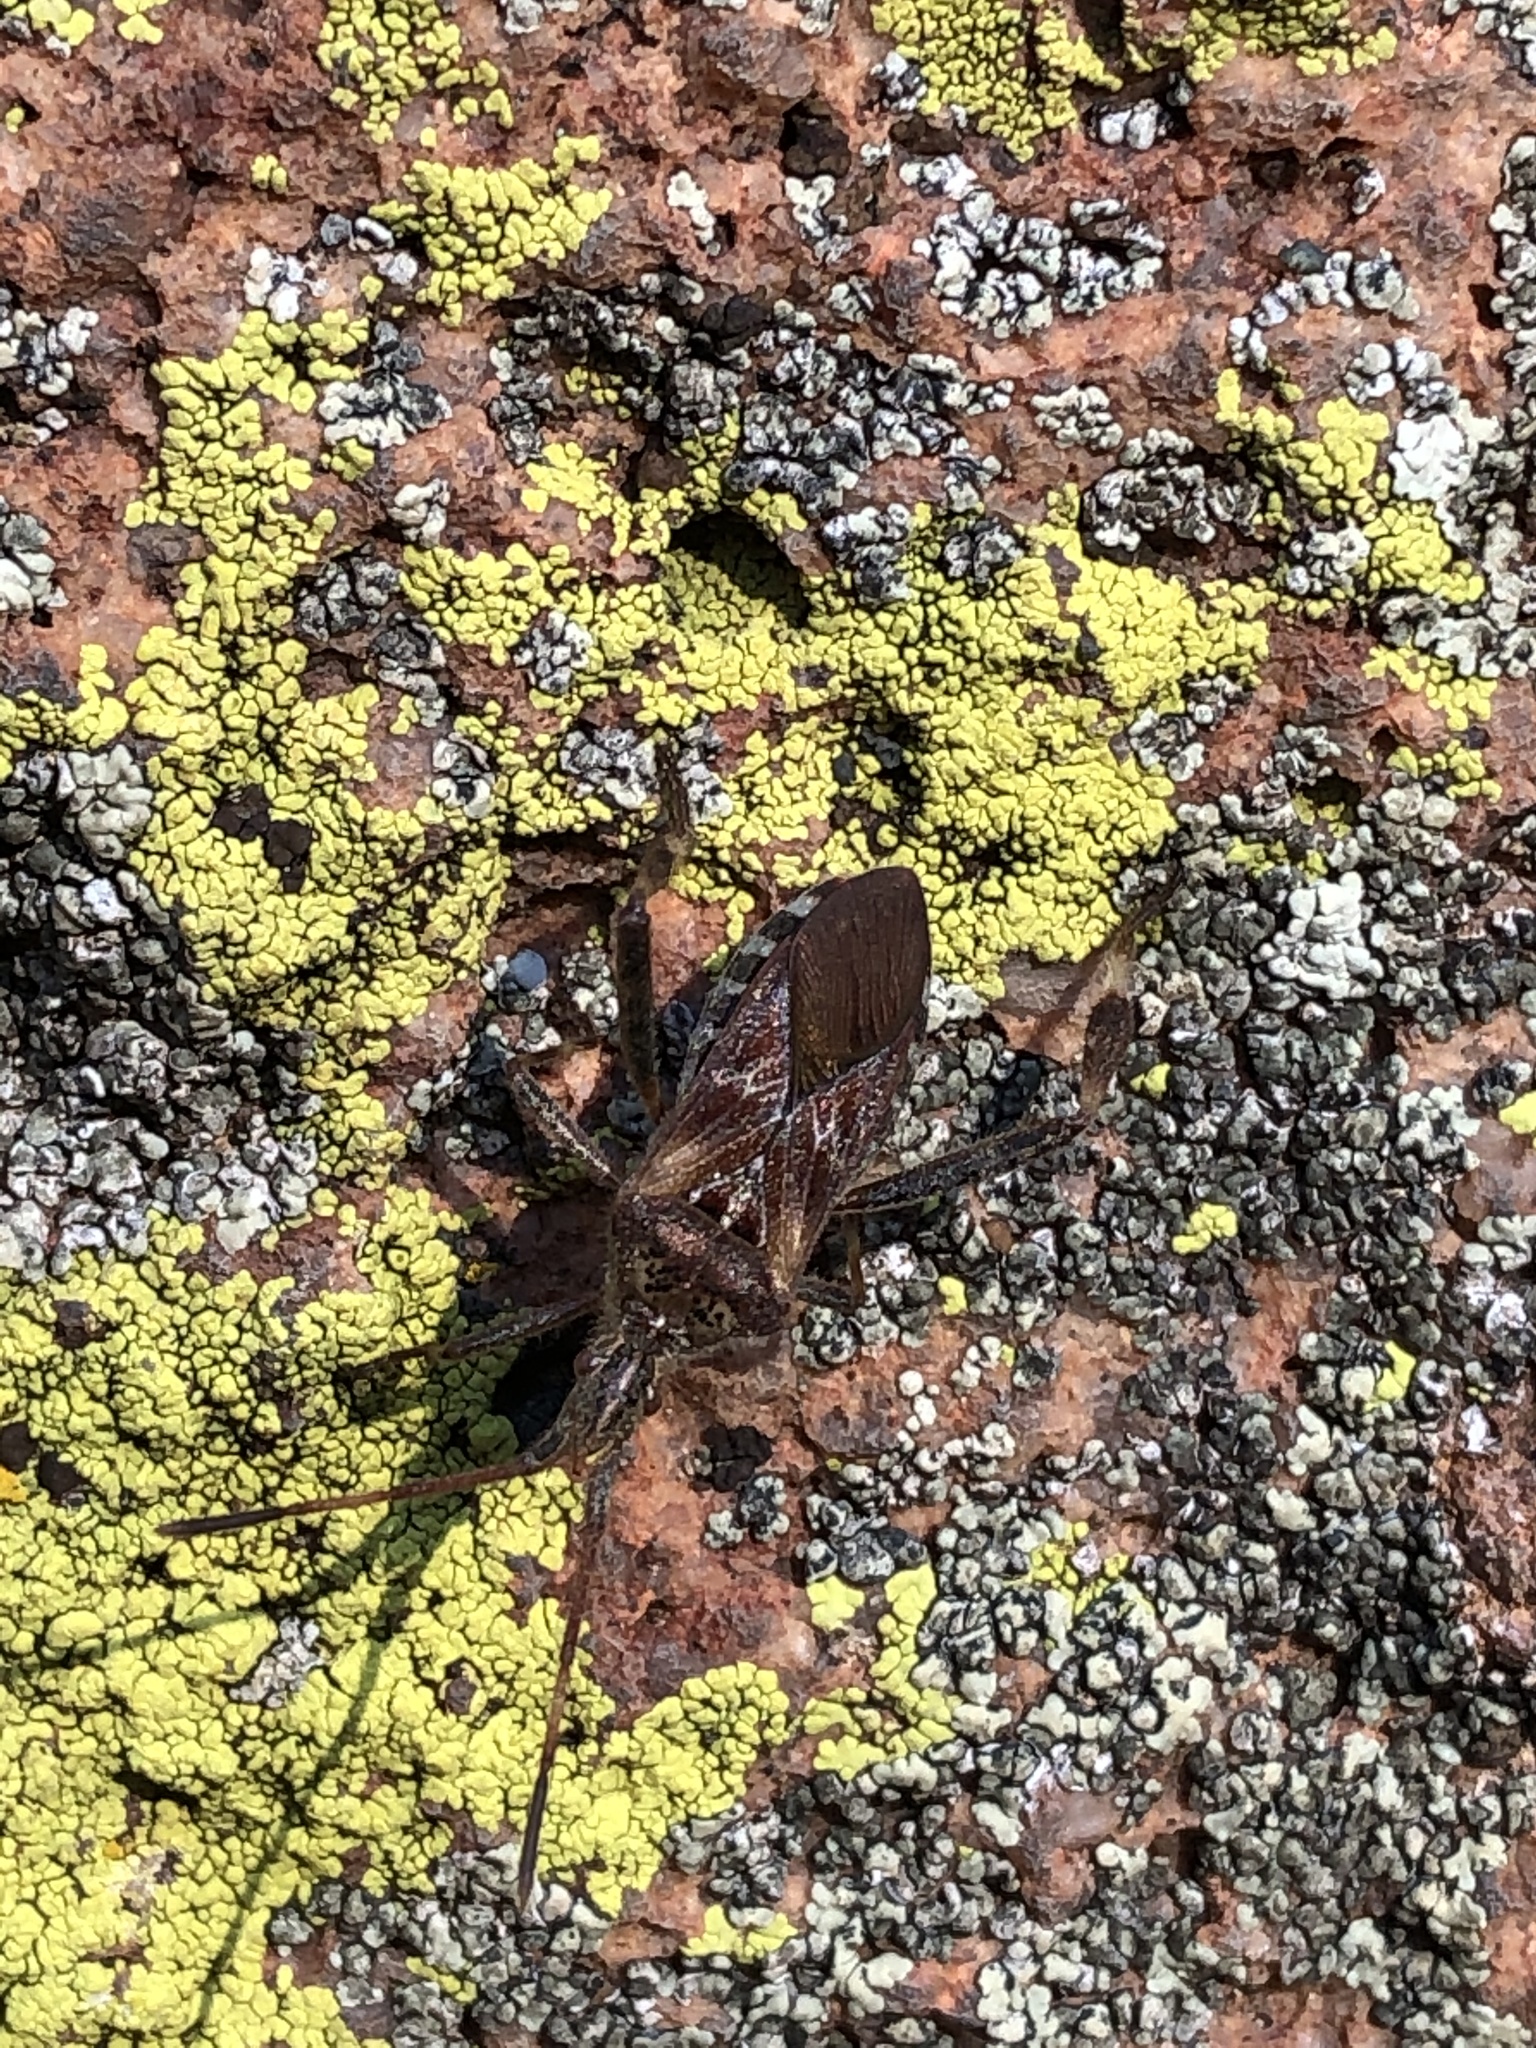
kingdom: Animalia
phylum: Arthropoda
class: Insecta
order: Hemiptera
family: Coreidae
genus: Leptoglossus
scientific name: Leptoglossus occidentalis
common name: Western conifer-seed bug
